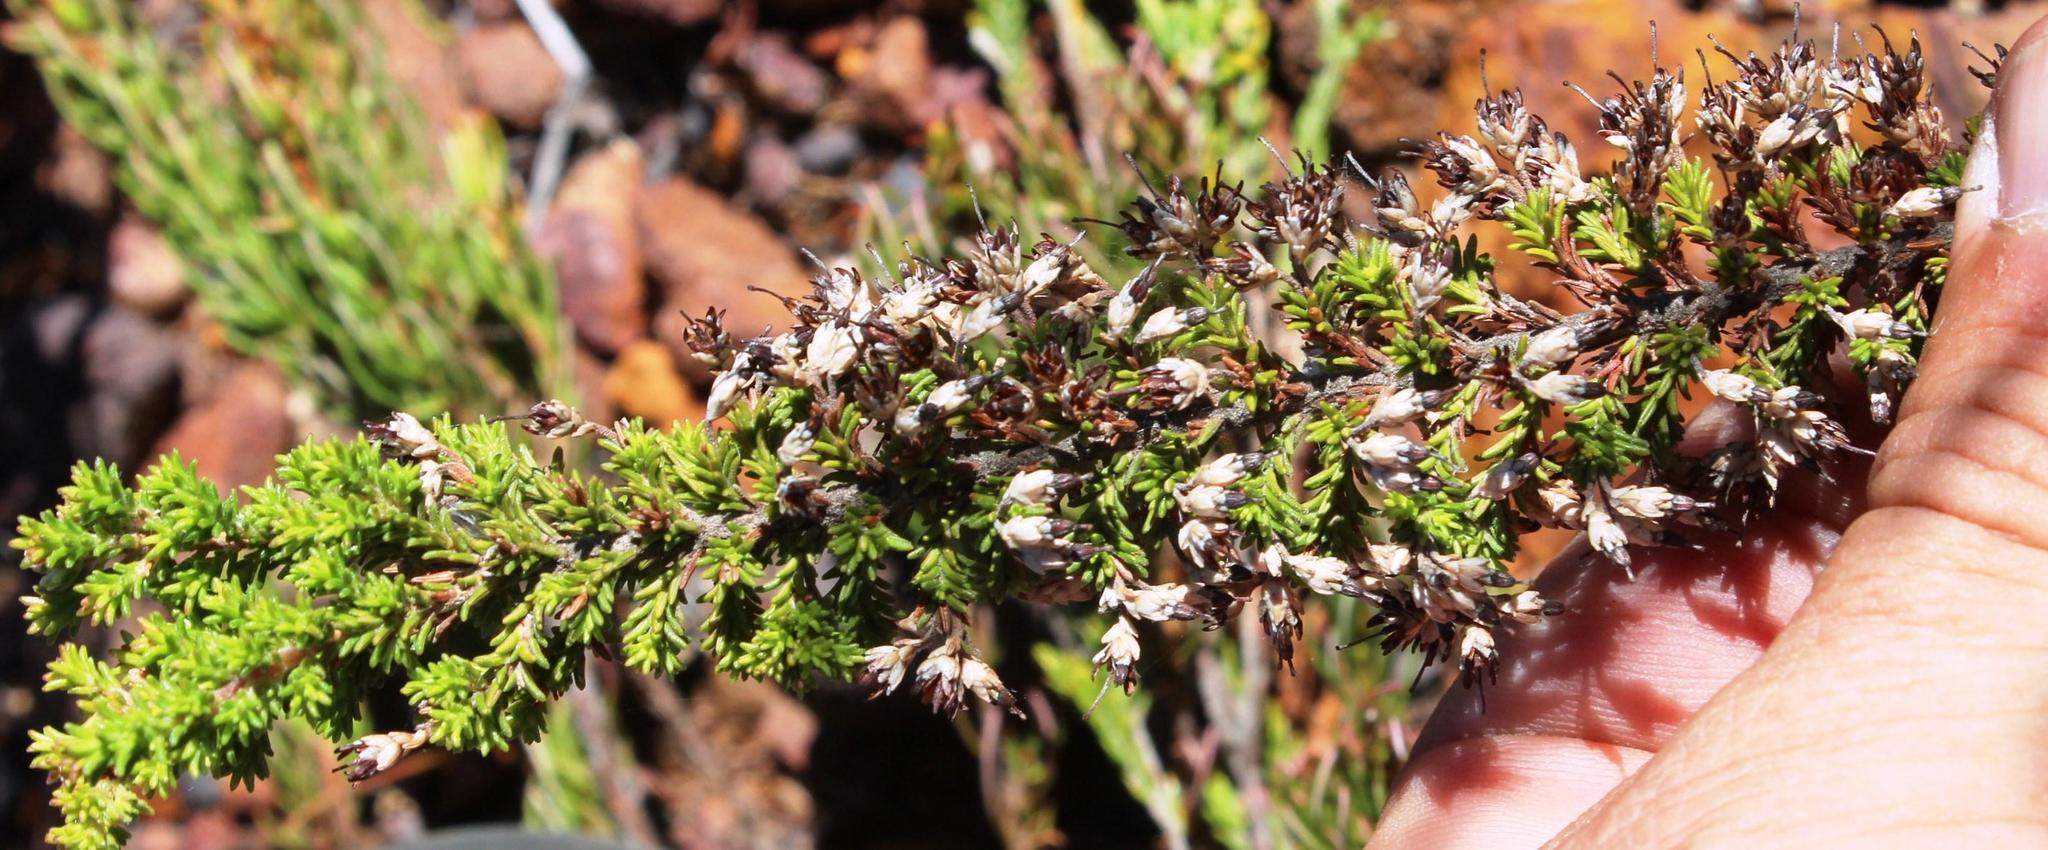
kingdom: Plantae
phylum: Tracheophyta
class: Magnoliopsida
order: Ericales
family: Ericaceae
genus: Erica
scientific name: Erica imbricata
